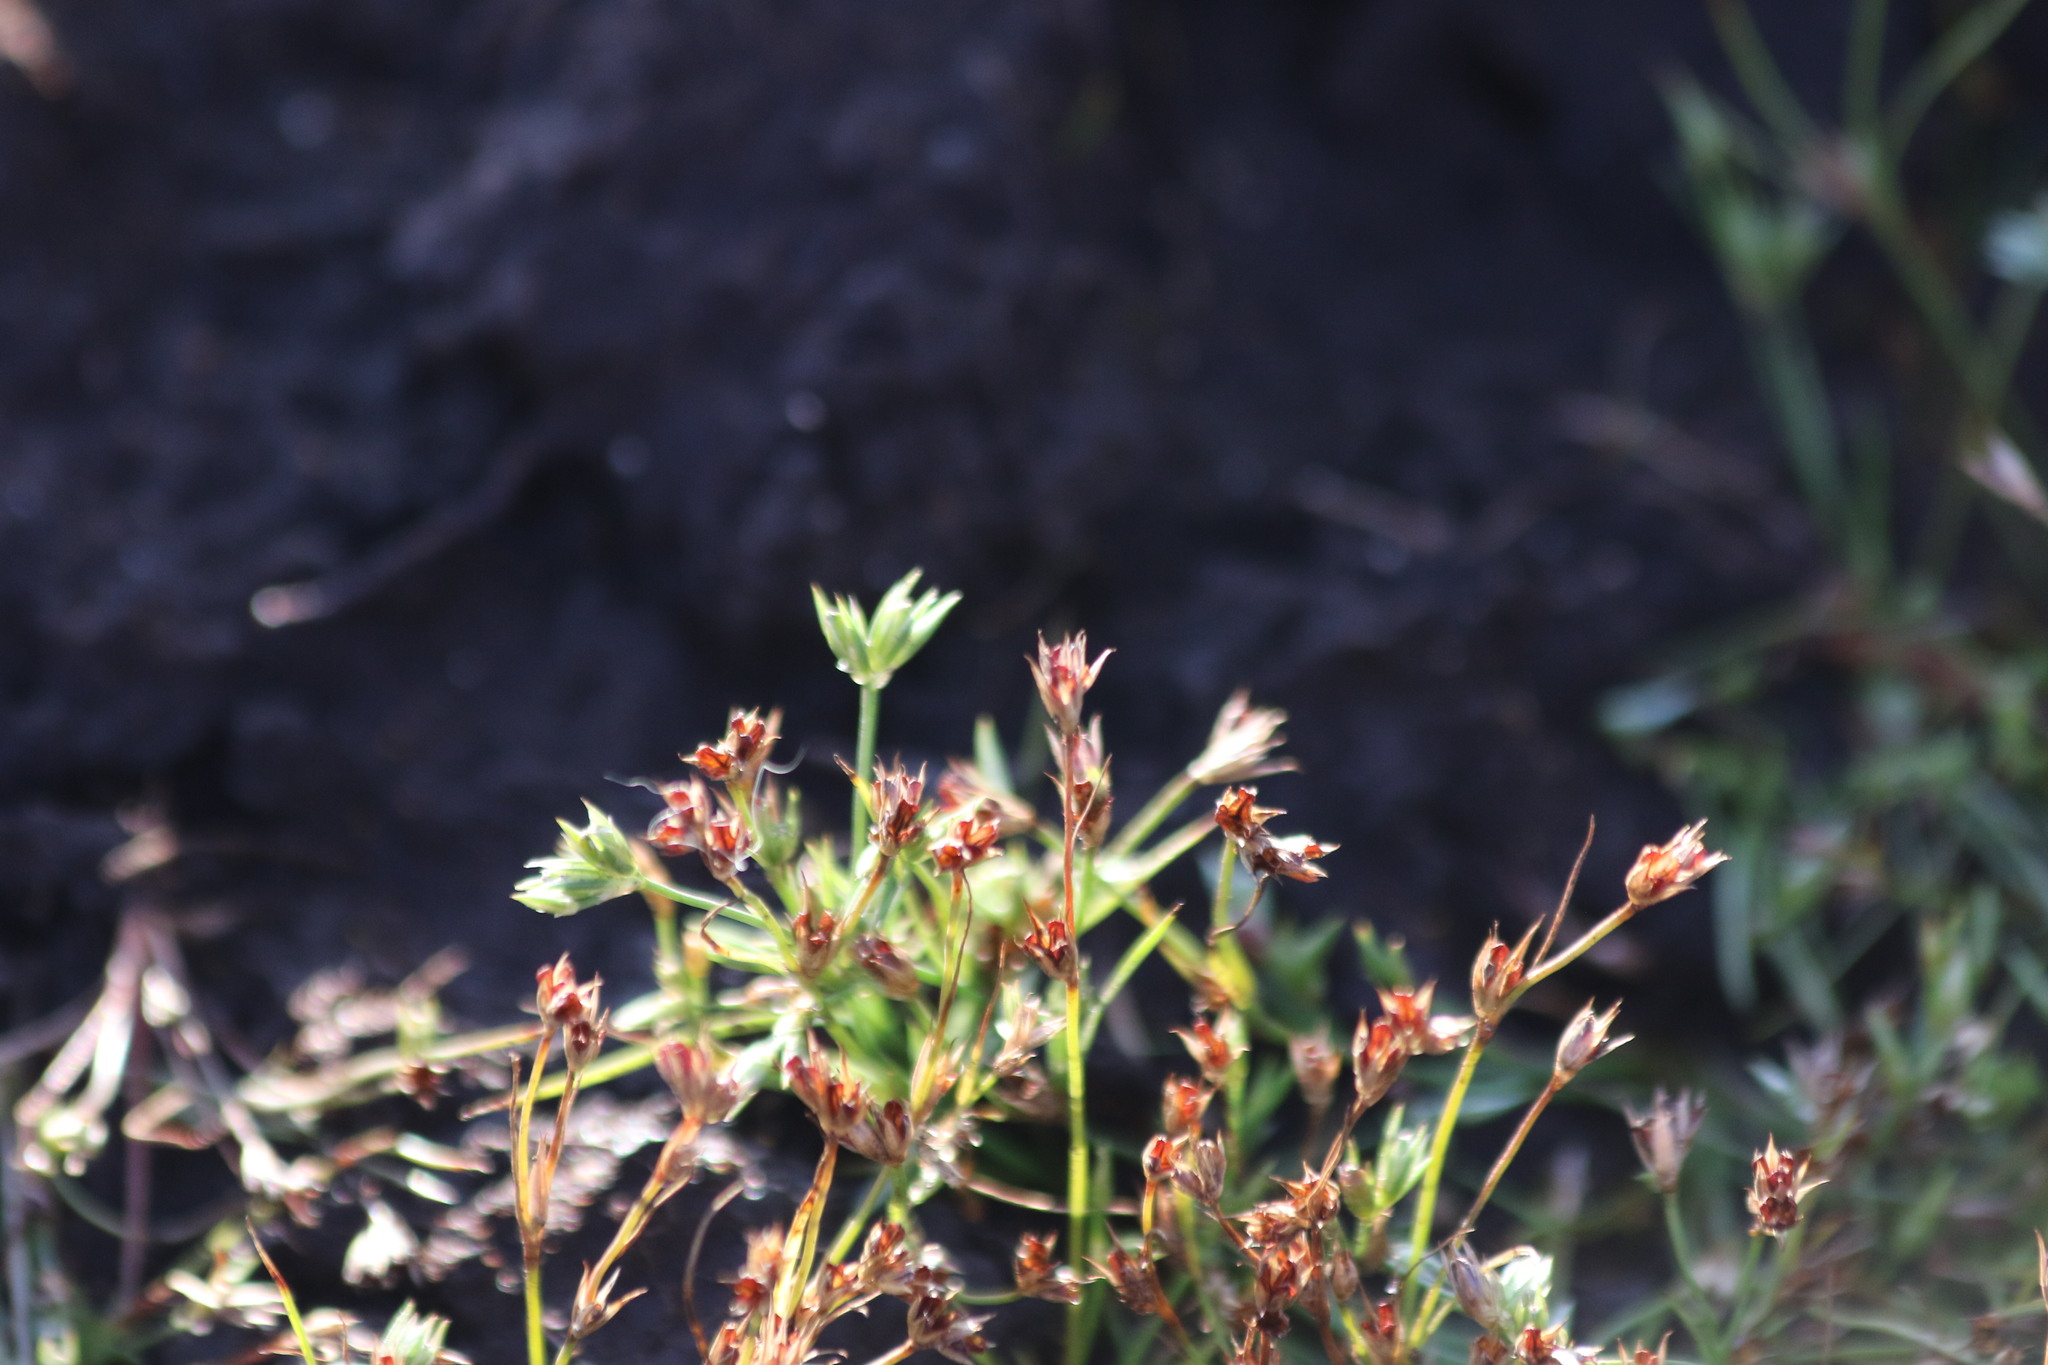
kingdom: Plantae
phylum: Tracheophyta
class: Liliopsida
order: Poales
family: Juncaceae
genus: Juncus
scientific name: Juncus bufonius
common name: Toad rush
